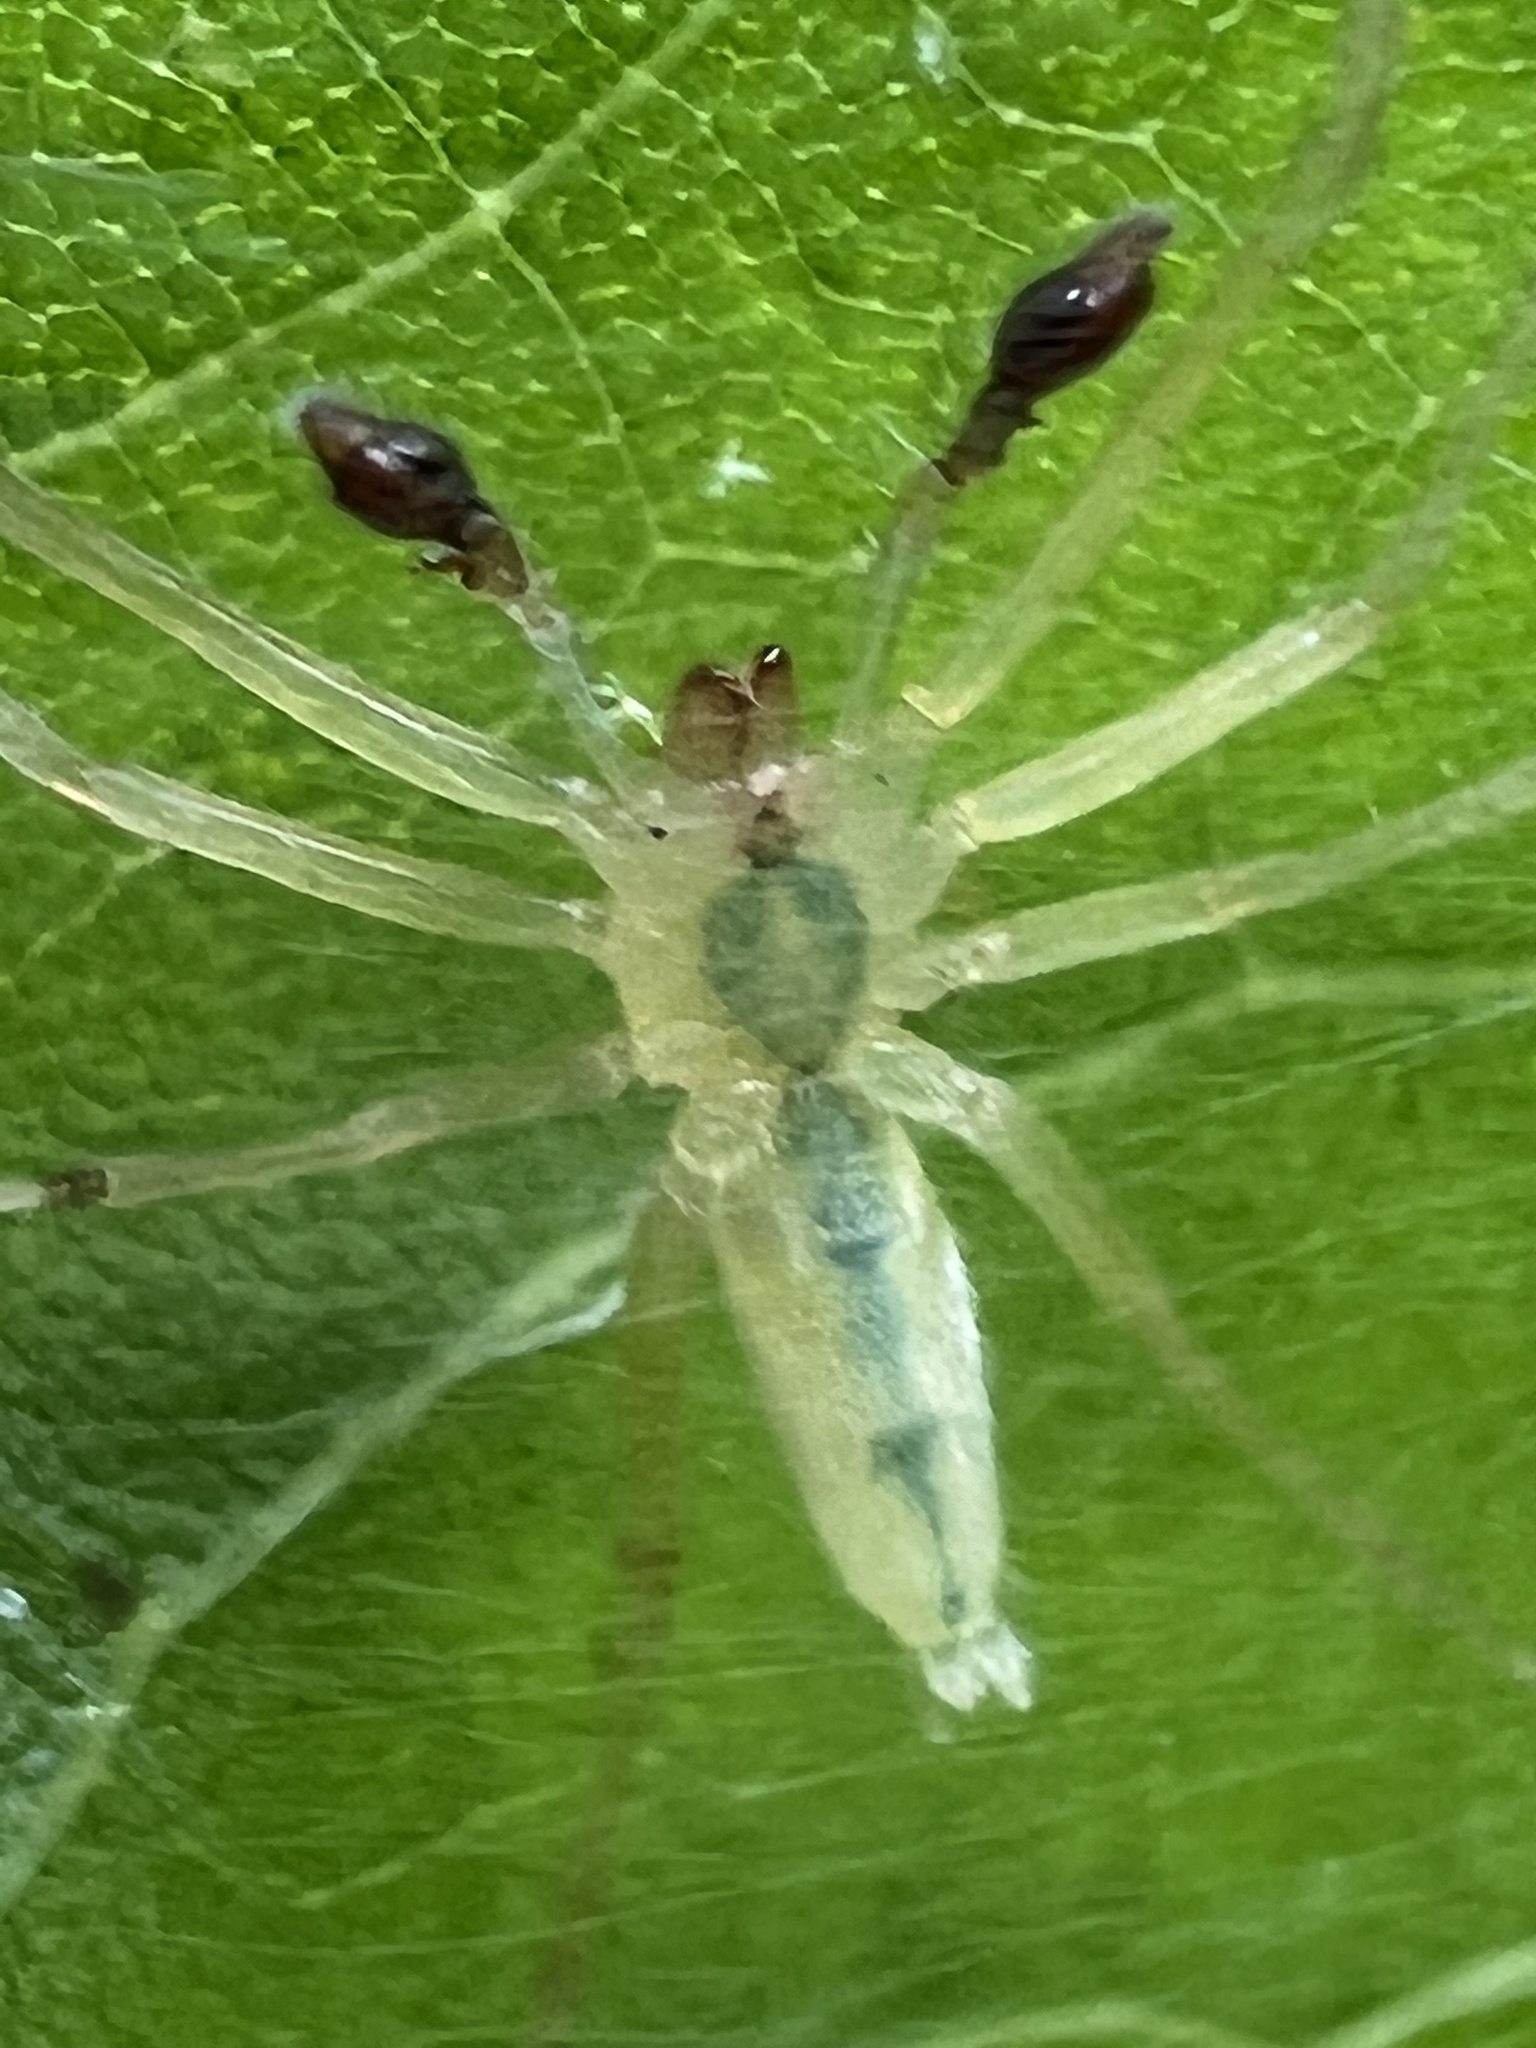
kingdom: Animalia
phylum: Arthropoda
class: Arachnida
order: Araneae
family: Anyphaenidae
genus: Wulfila
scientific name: Wulfila albens
